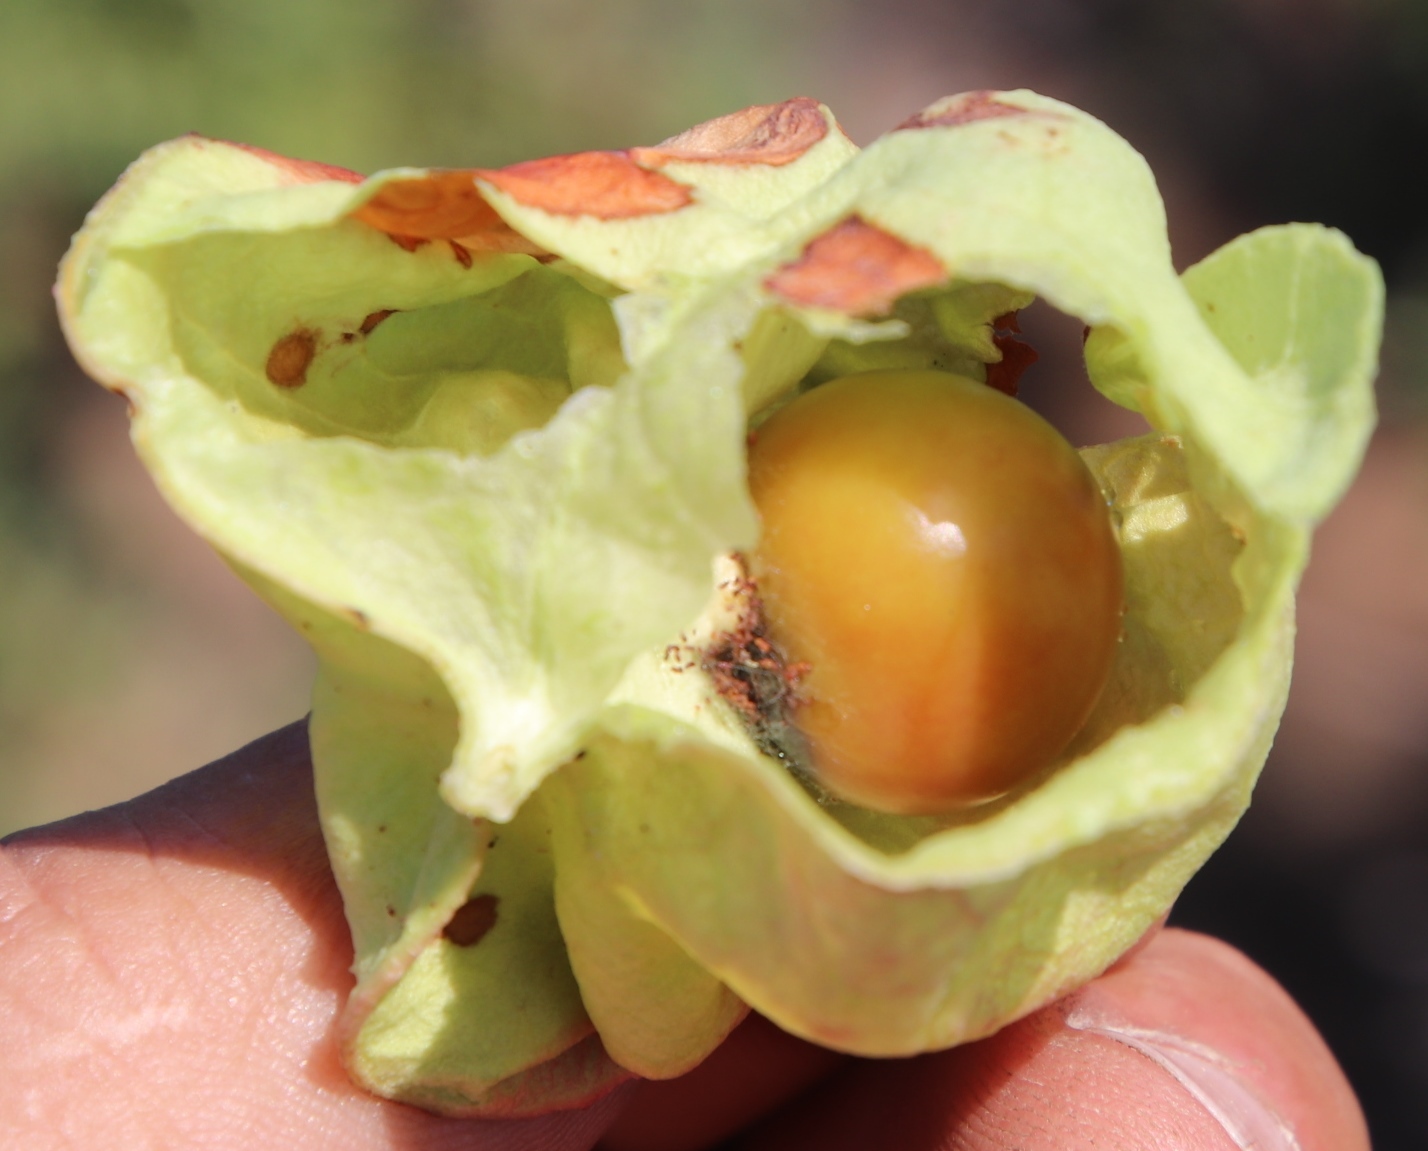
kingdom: Plantae
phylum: Tracheophyta
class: Magnoliopsida
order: Sapindales
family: Sapindaceae
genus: Erythrophysa
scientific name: Erythrophysa alata
